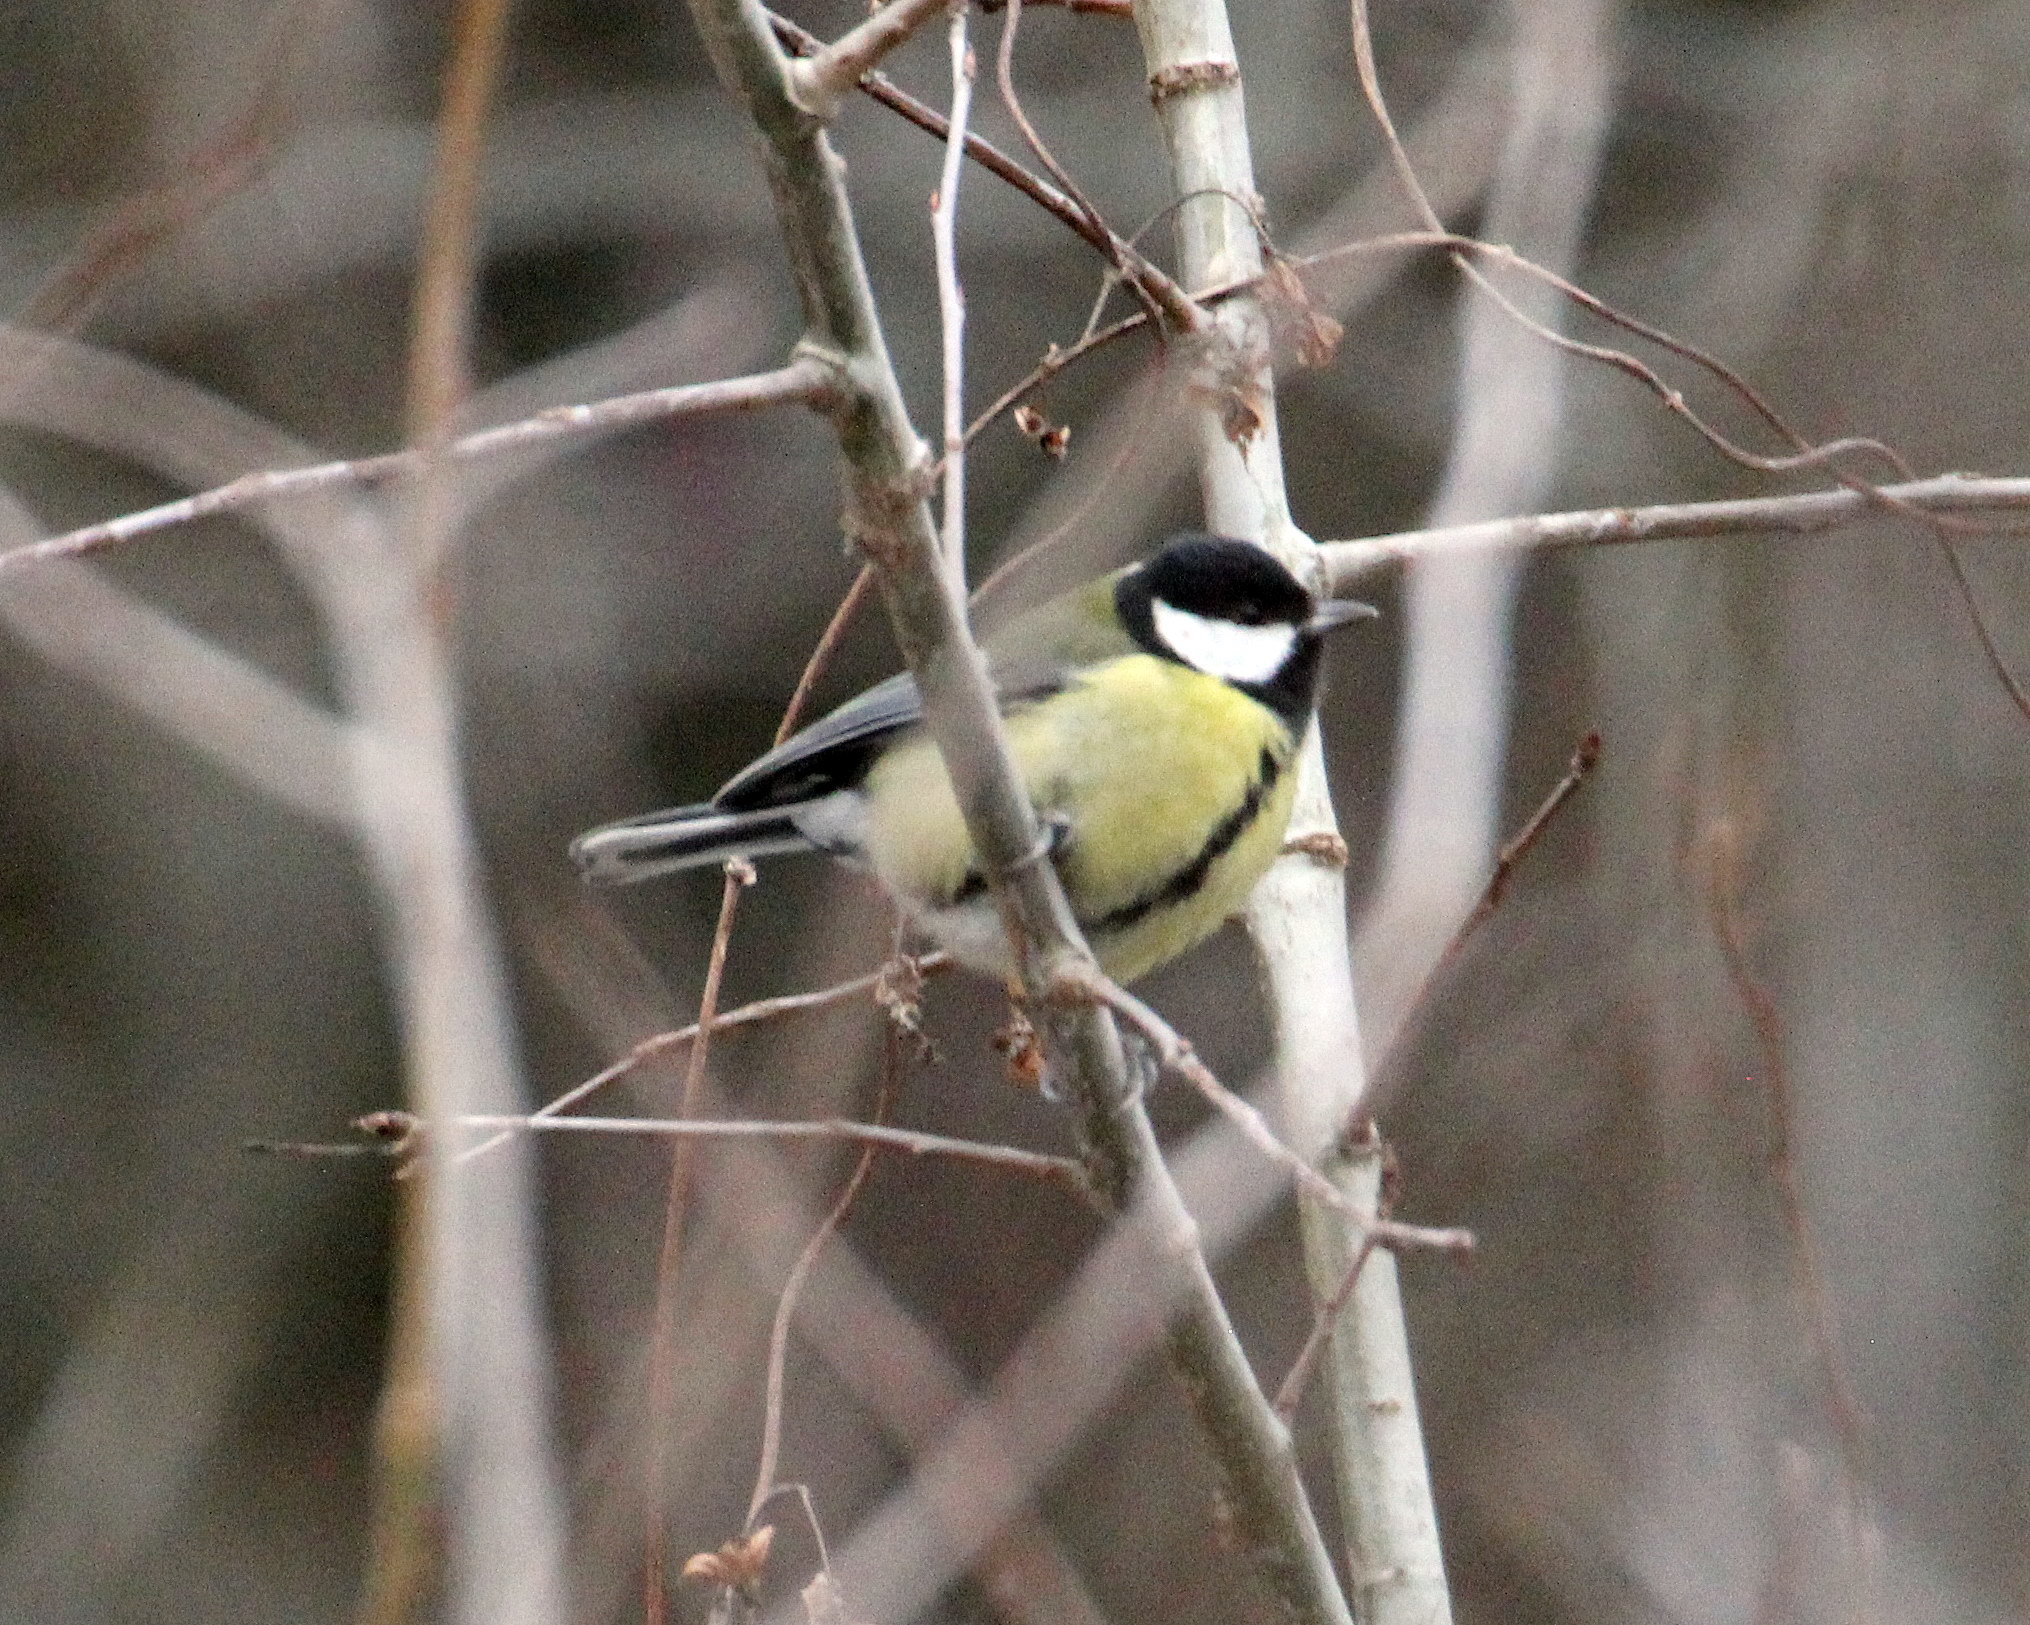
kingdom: Animalia
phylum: Chordata
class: Aves
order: Passeriformes
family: Paridae
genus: Parus
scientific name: Parus major
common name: Great tit
